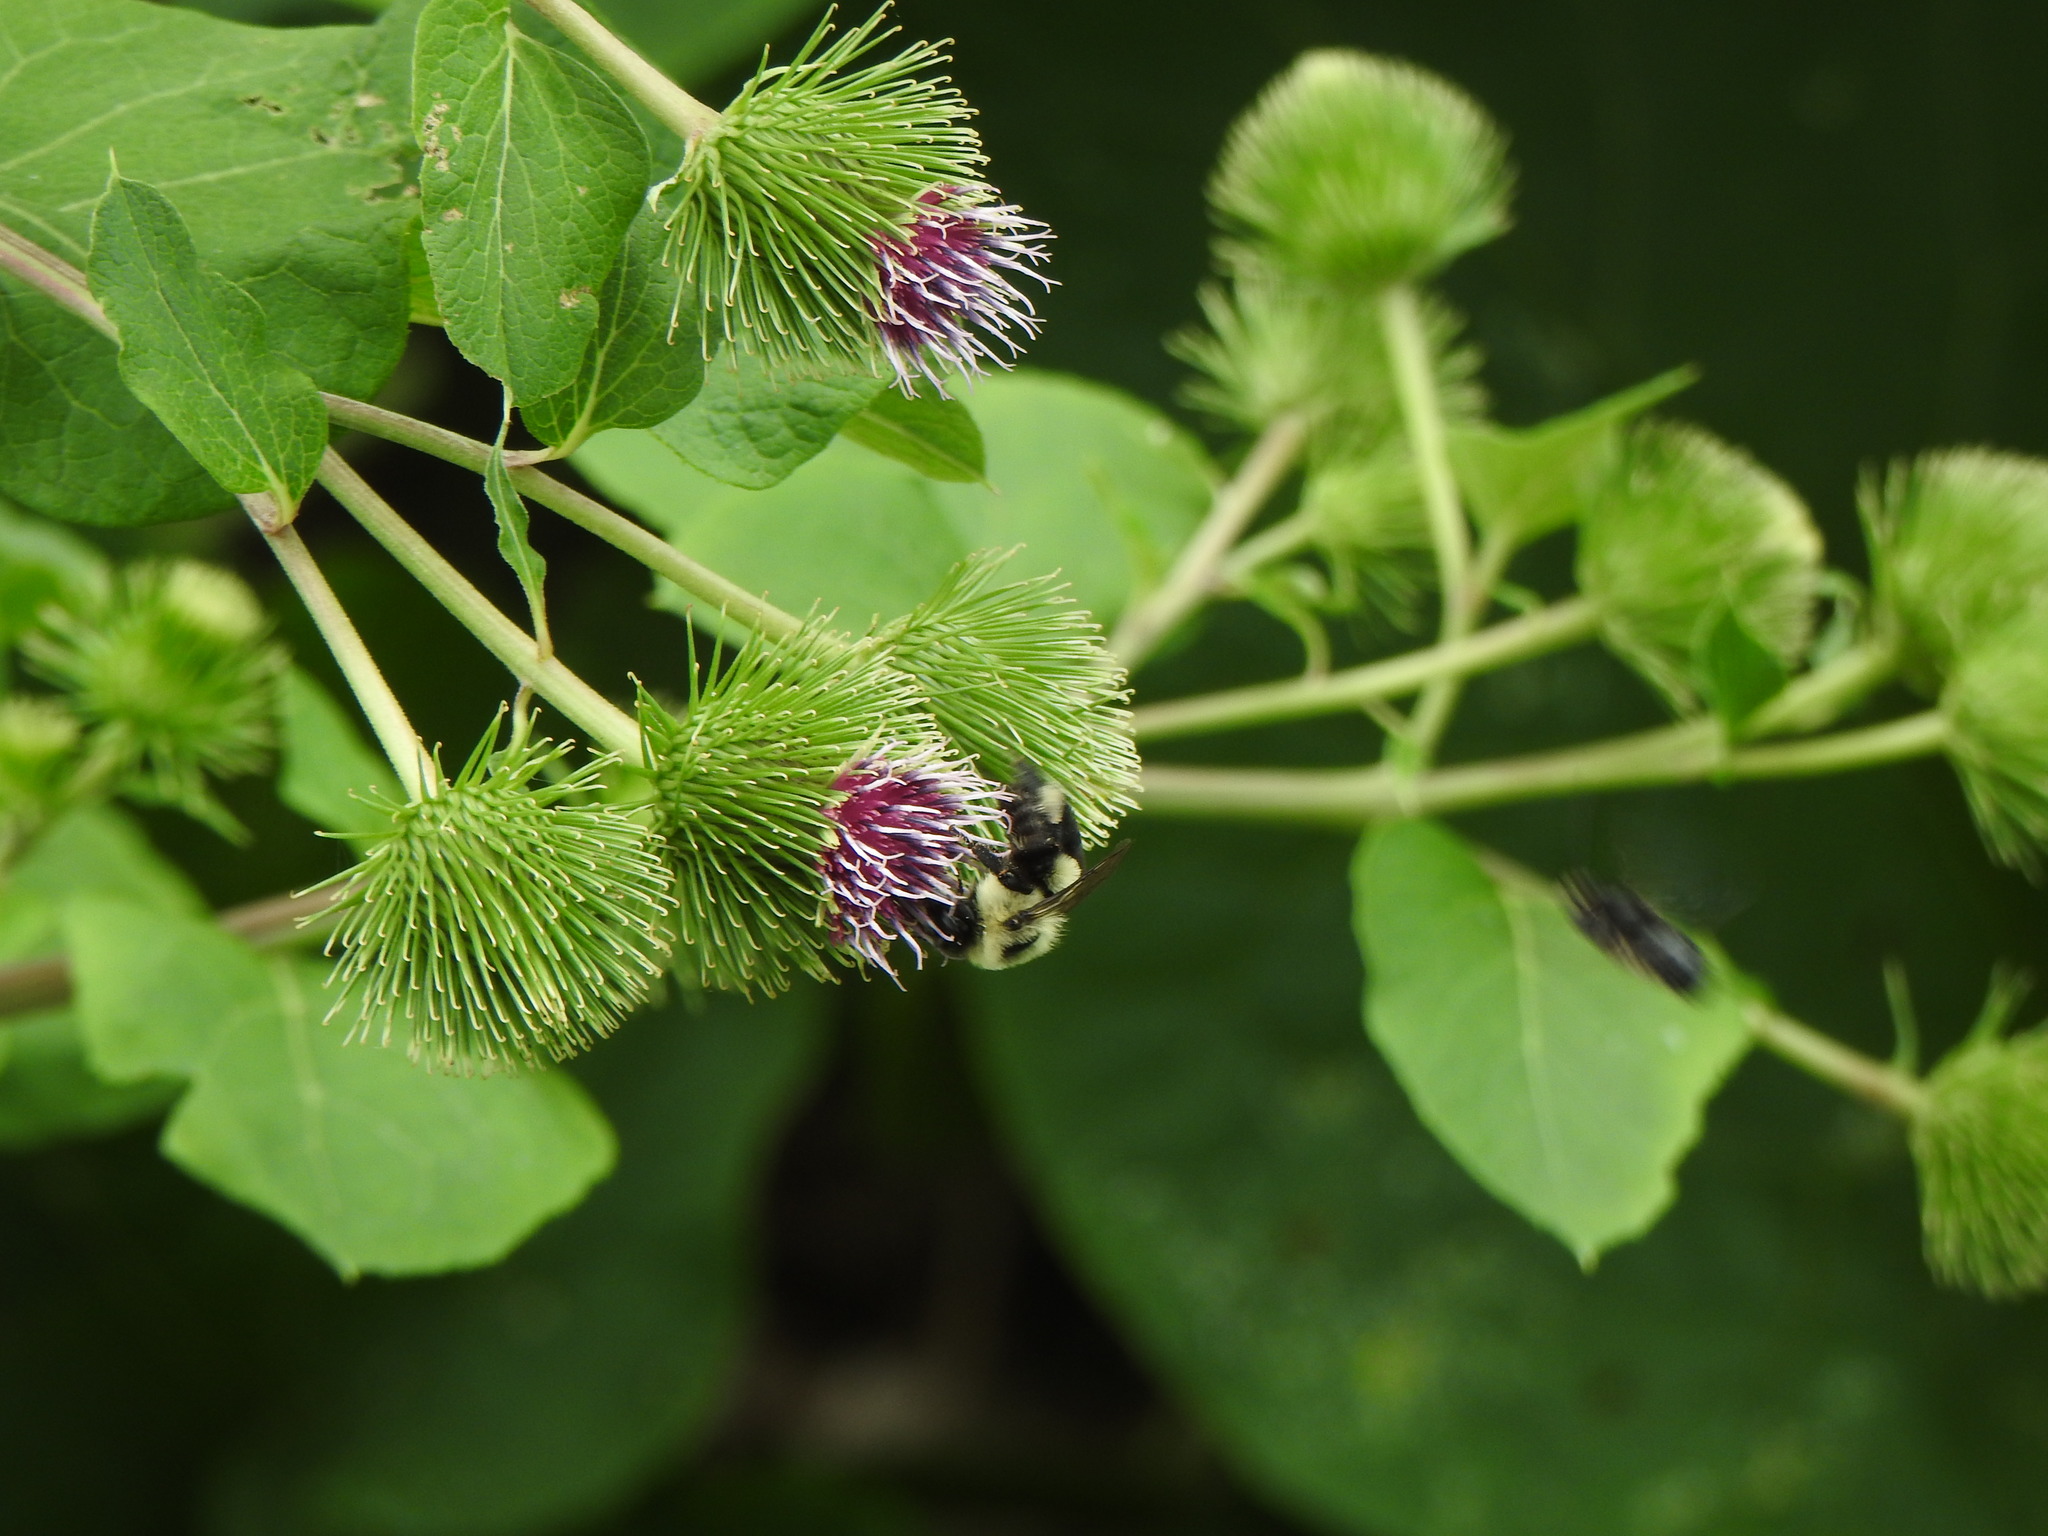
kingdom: Animalia
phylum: Arthropoda
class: Insecta
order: Hymenoptera
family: Apidae
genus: Bombus
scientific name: Bombus impatiens
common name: Common eastern bumble bee
